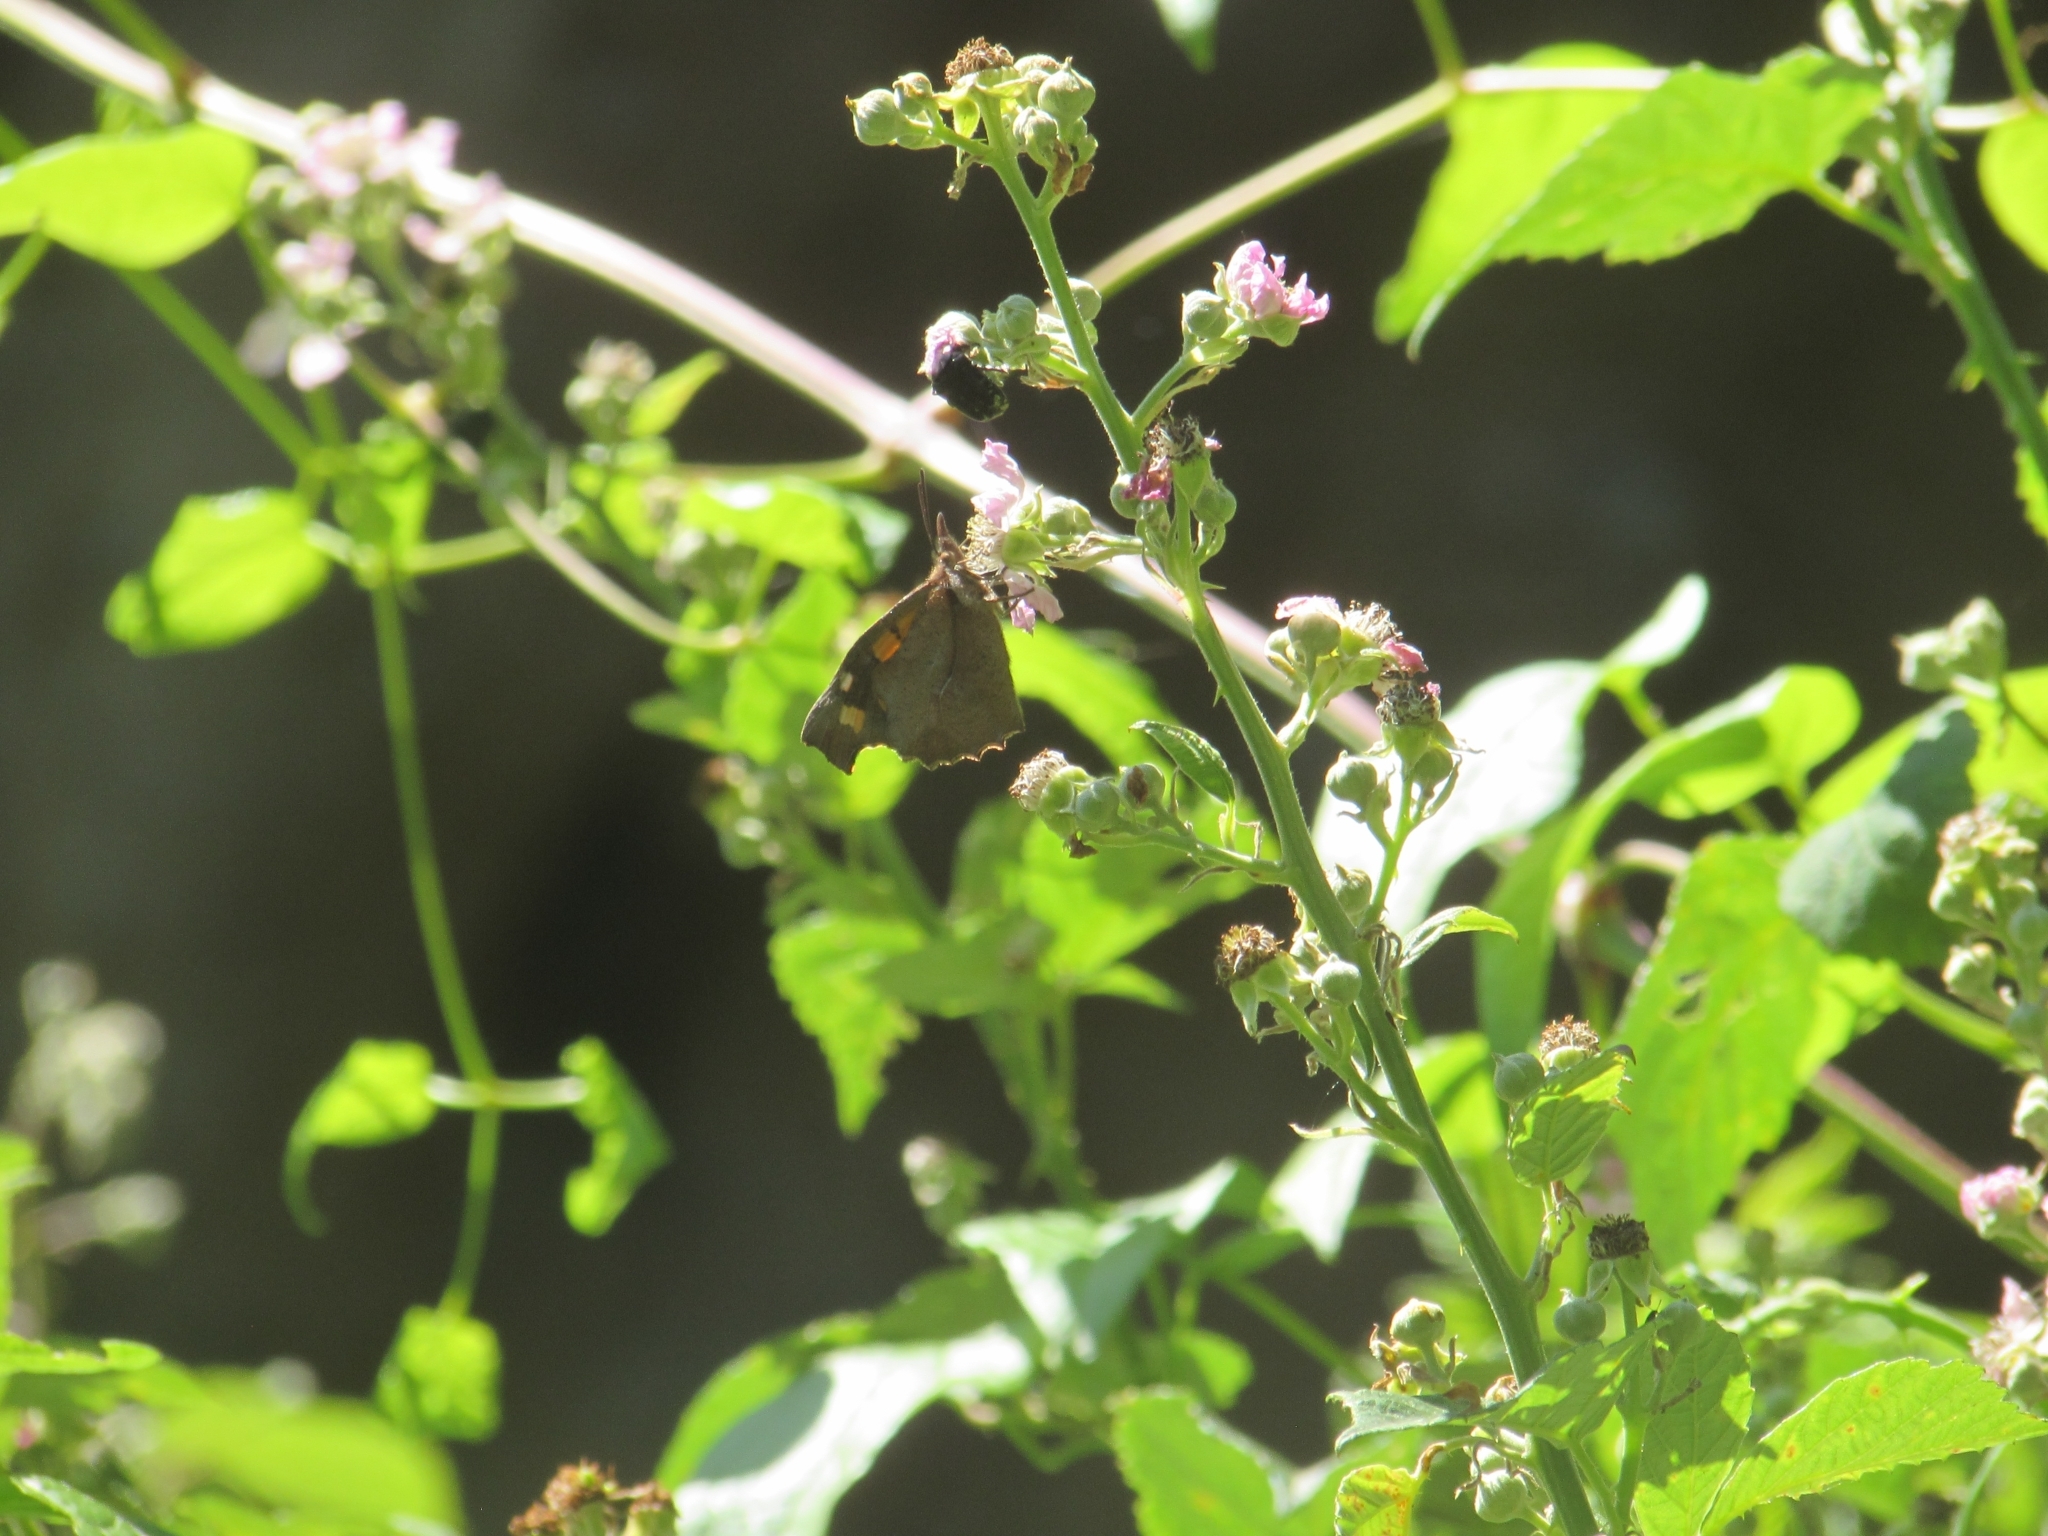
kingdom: Animalia
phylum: Arthropoda
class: Insecta
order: Lepidoptera
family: Nymphalidae
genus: Libythea
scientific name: Libythea celtis
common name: Nettle-tree butterfly
